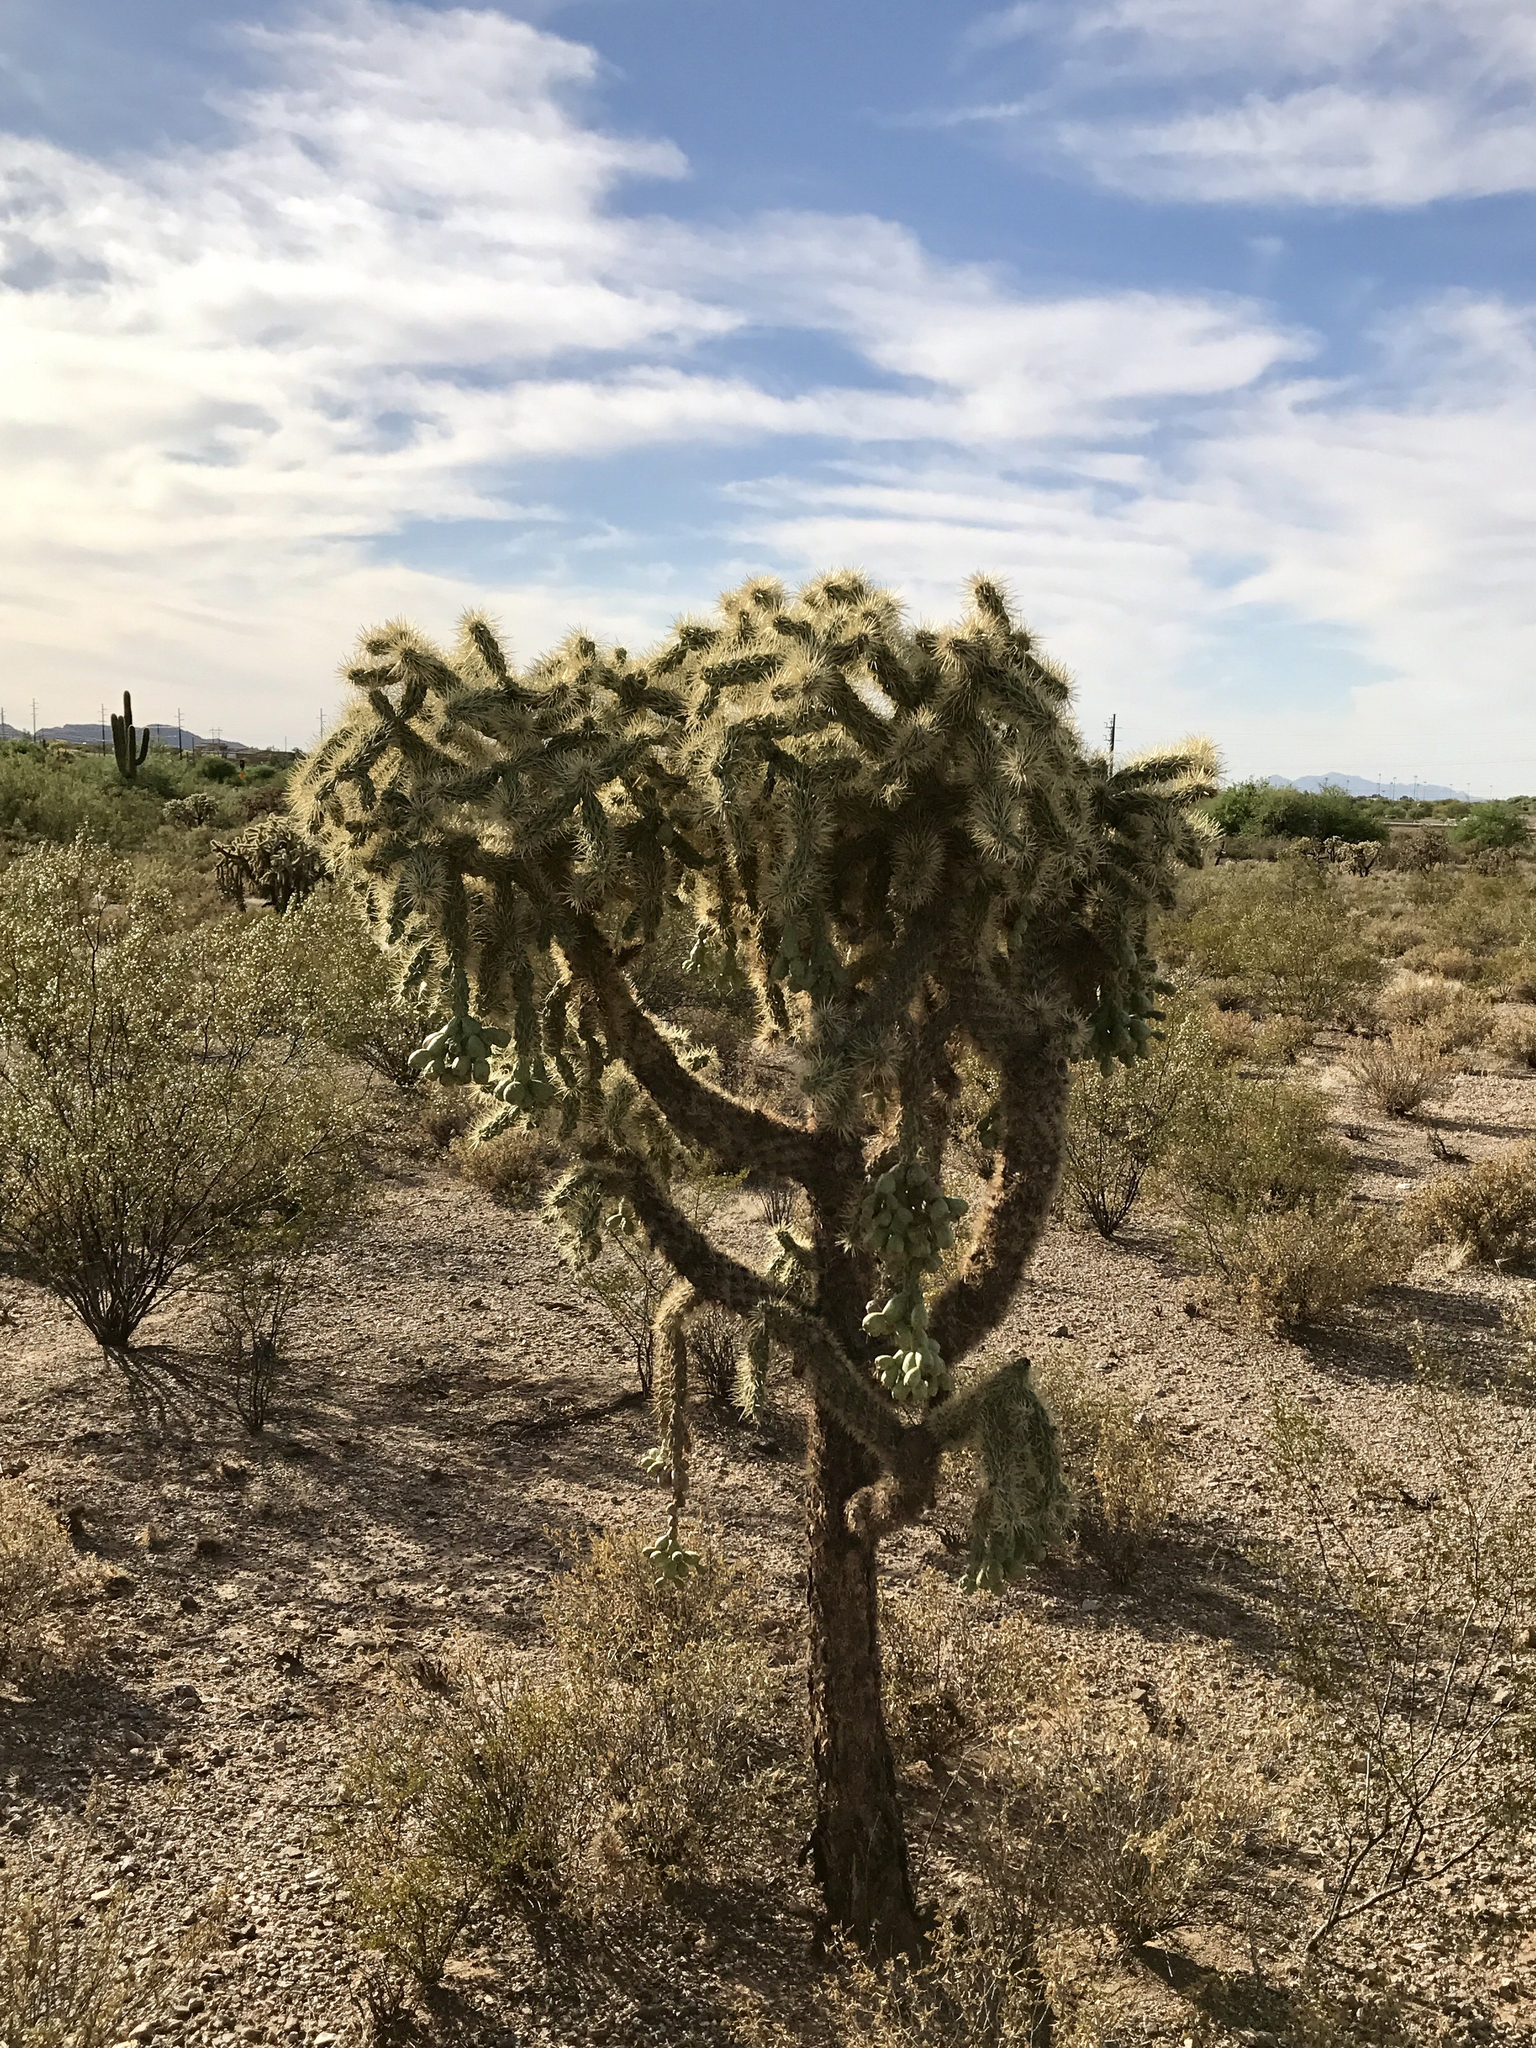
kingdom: Plantae
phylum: Tracheophyta
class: Magnoliopsida
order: Caryophyllales
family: Cactaceae
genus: Cylindropuntia
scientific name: Cylindropuntia fulgida
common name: Jumping cholla
